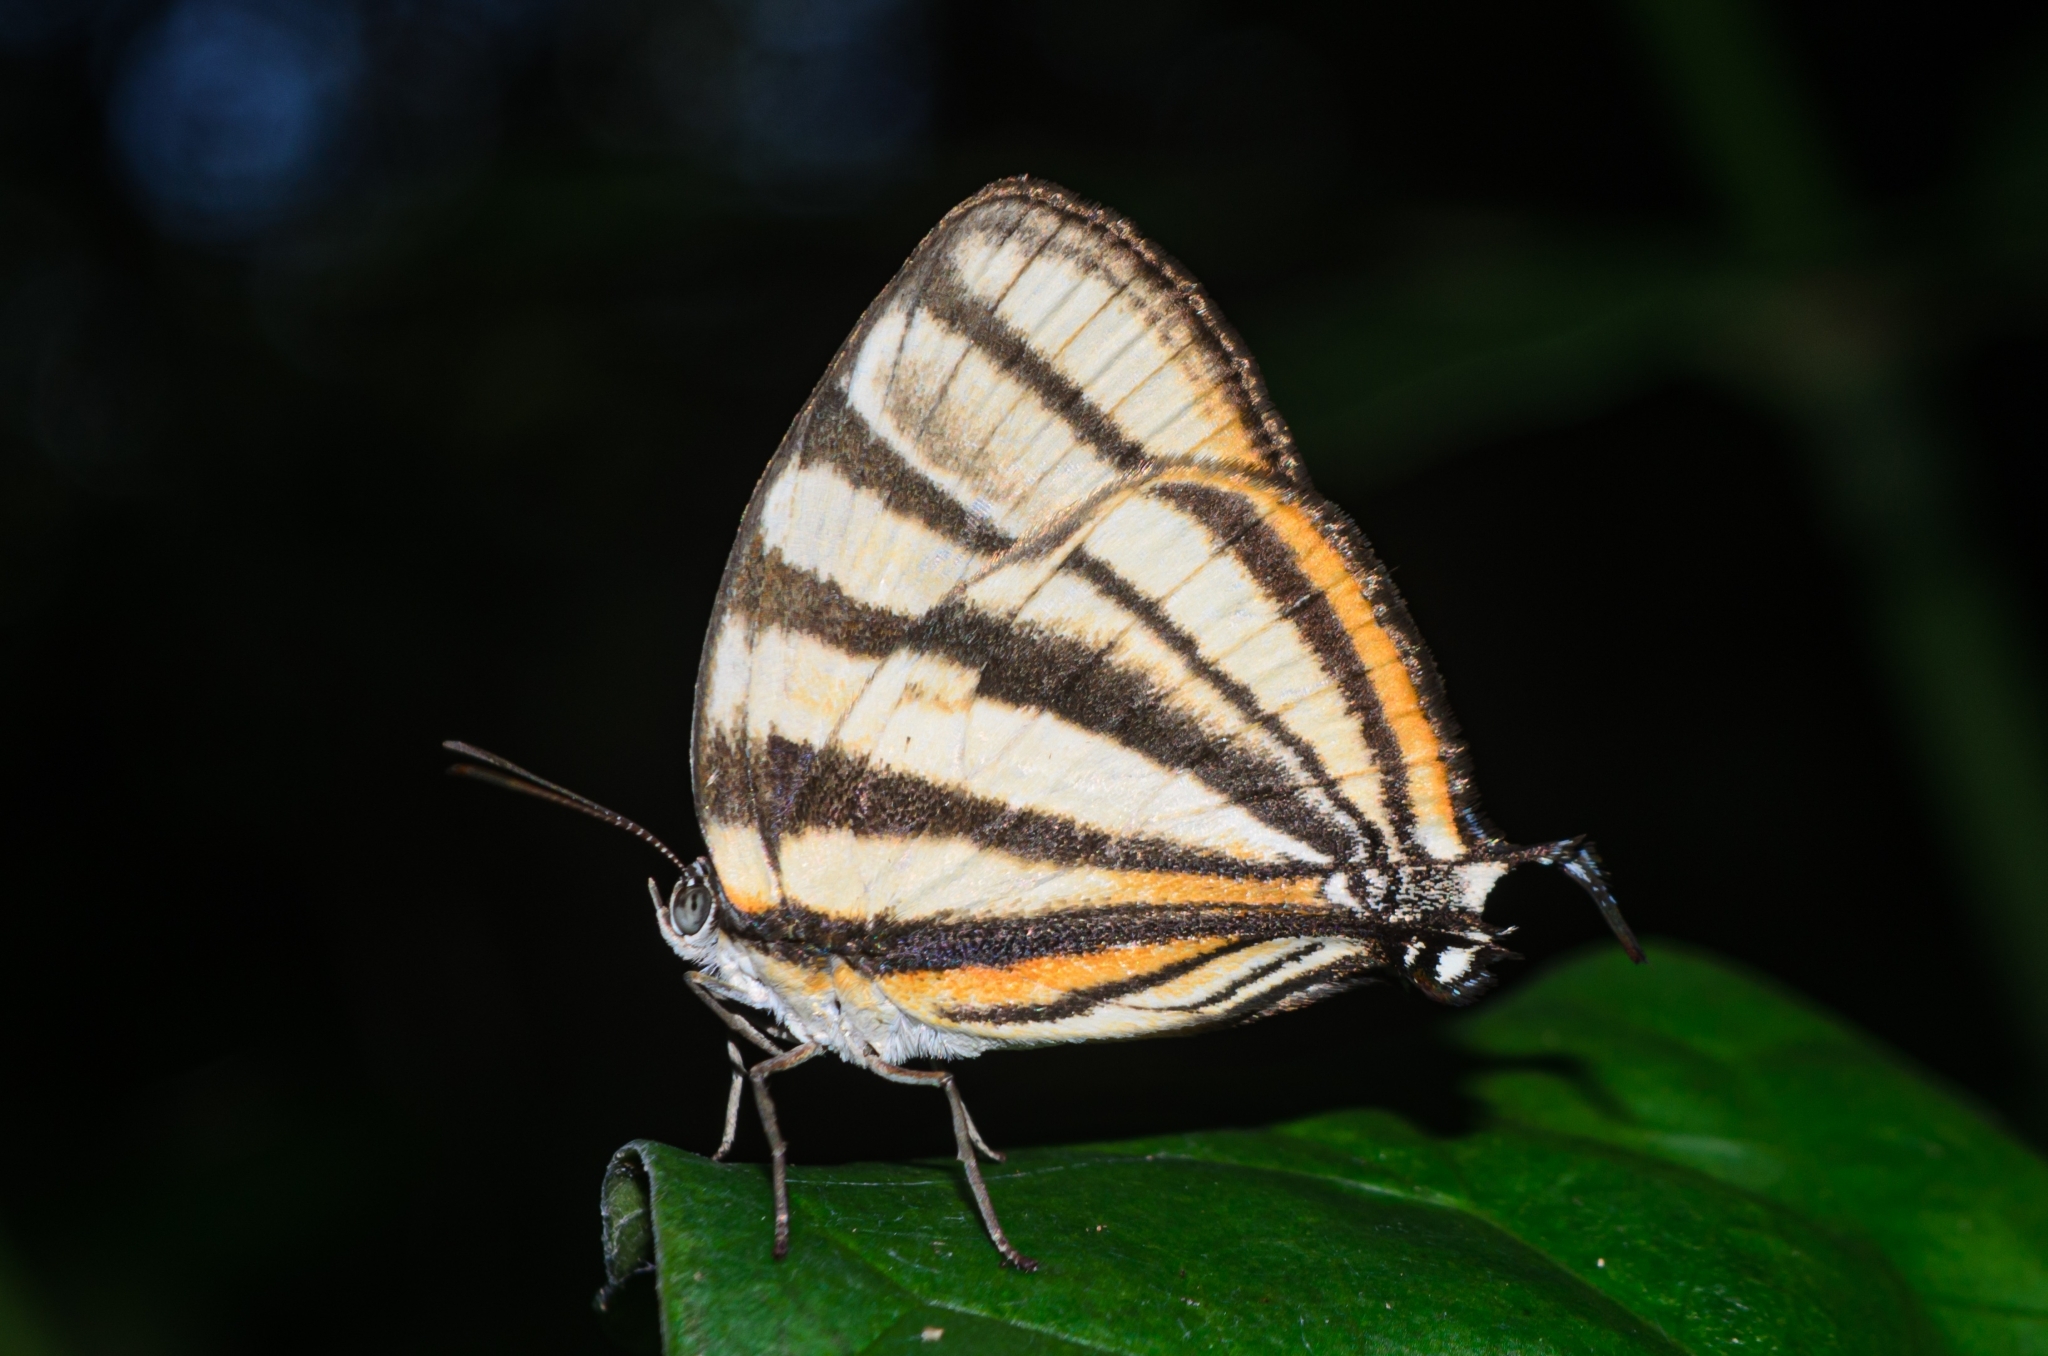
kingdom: Animalia
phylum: Arthropoda
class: Insecta
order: Lepidoptera
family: Lycaenidae
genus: Arawacus
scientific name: Arawacus separata
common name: Separated stripestreak
